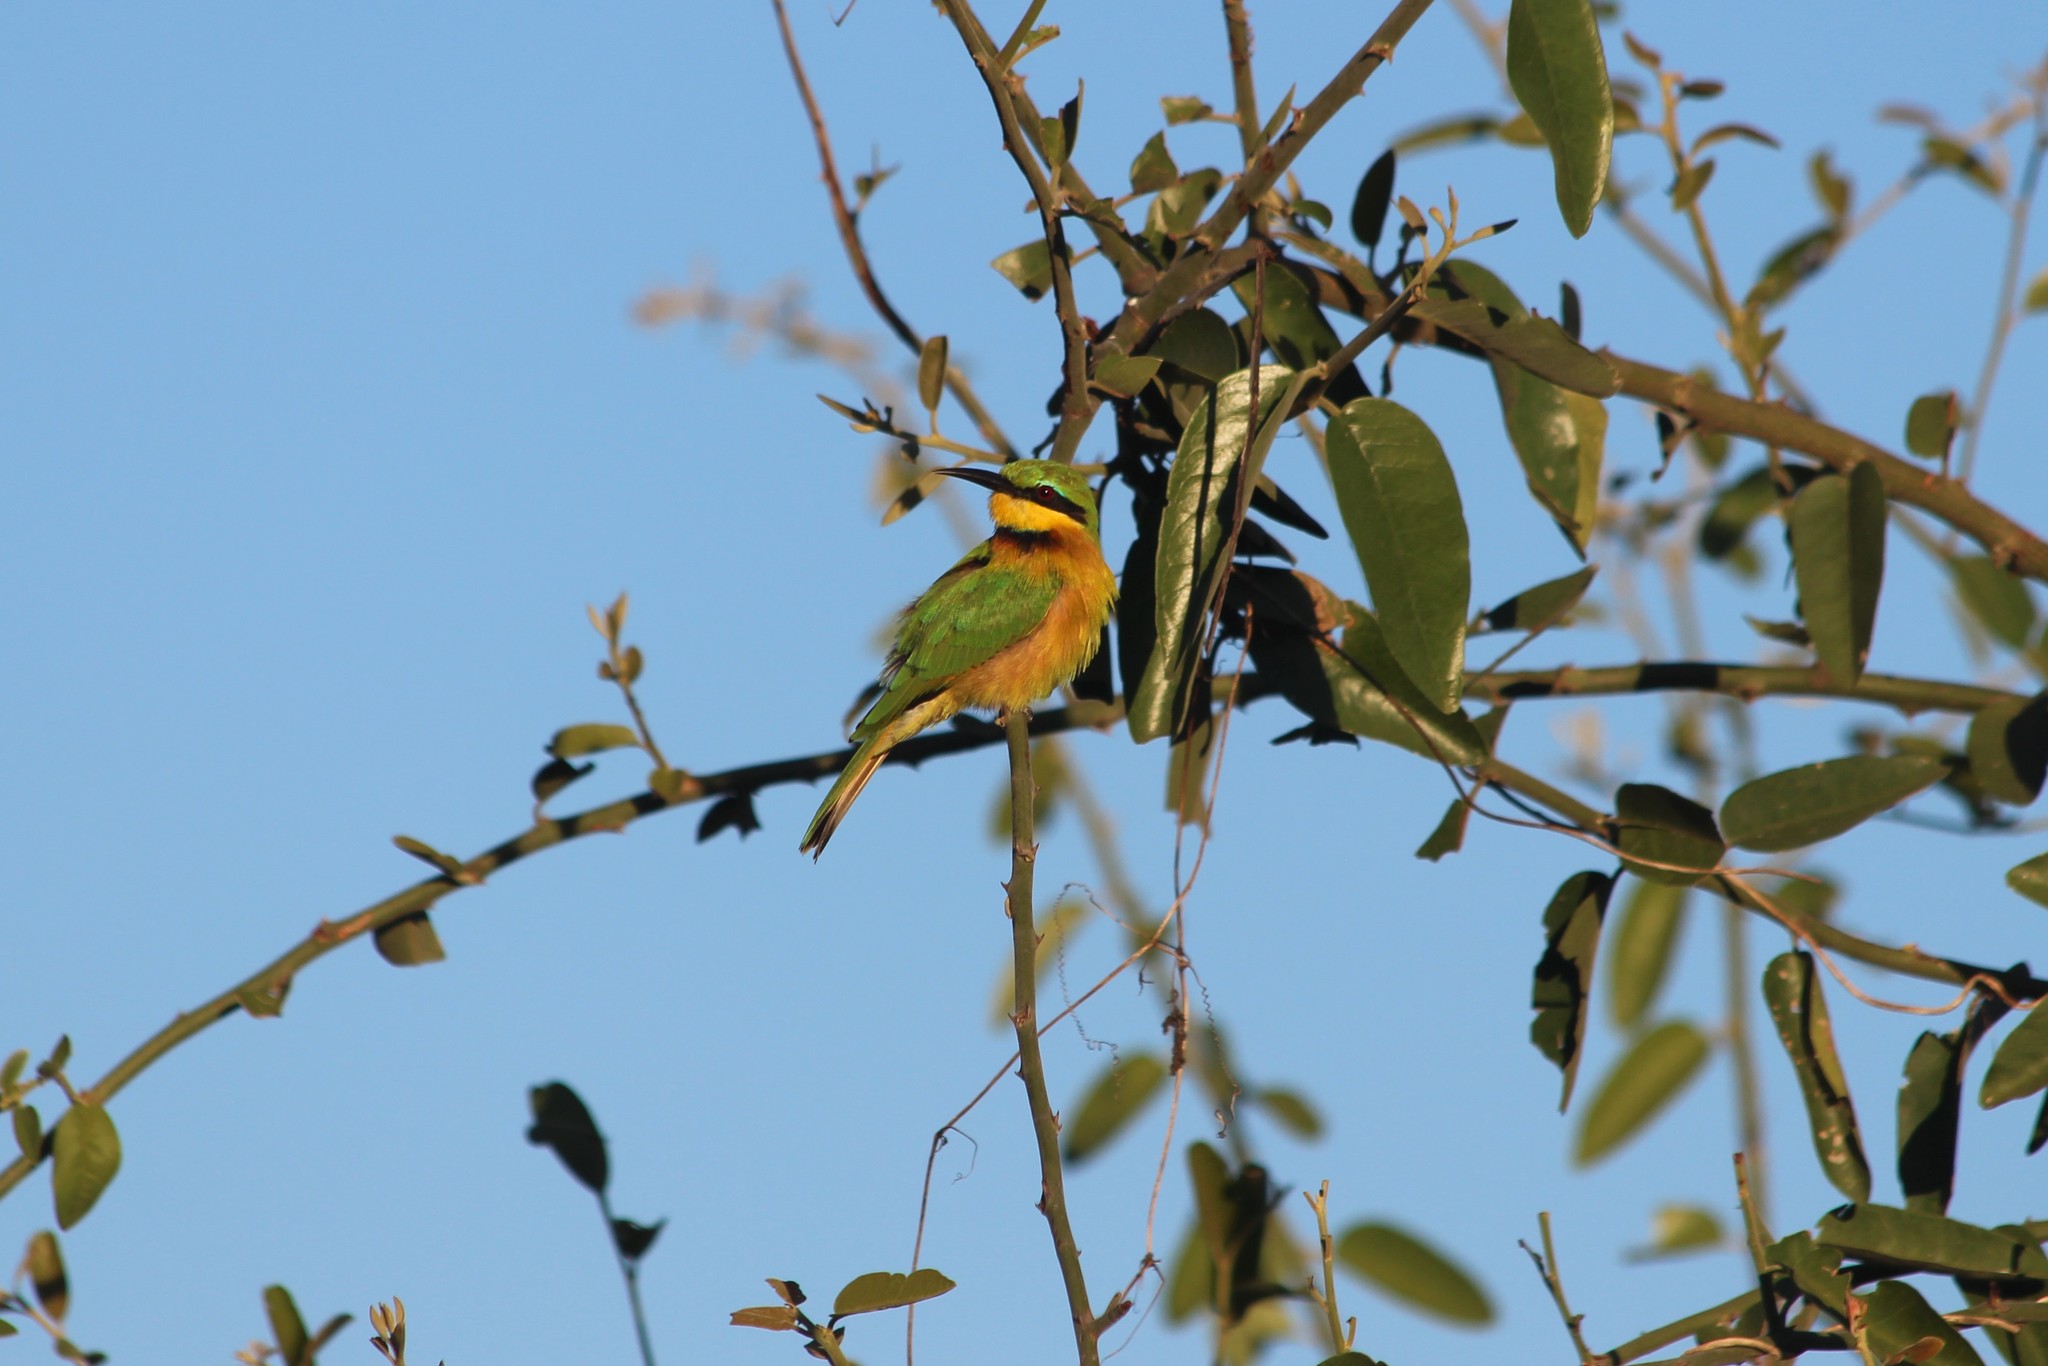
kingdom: Animalia
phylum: Chordata
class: Aves
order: Coraciiformes
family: Meropidae
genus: Merops
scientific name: Merops pusillus
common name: Little bee-eater
